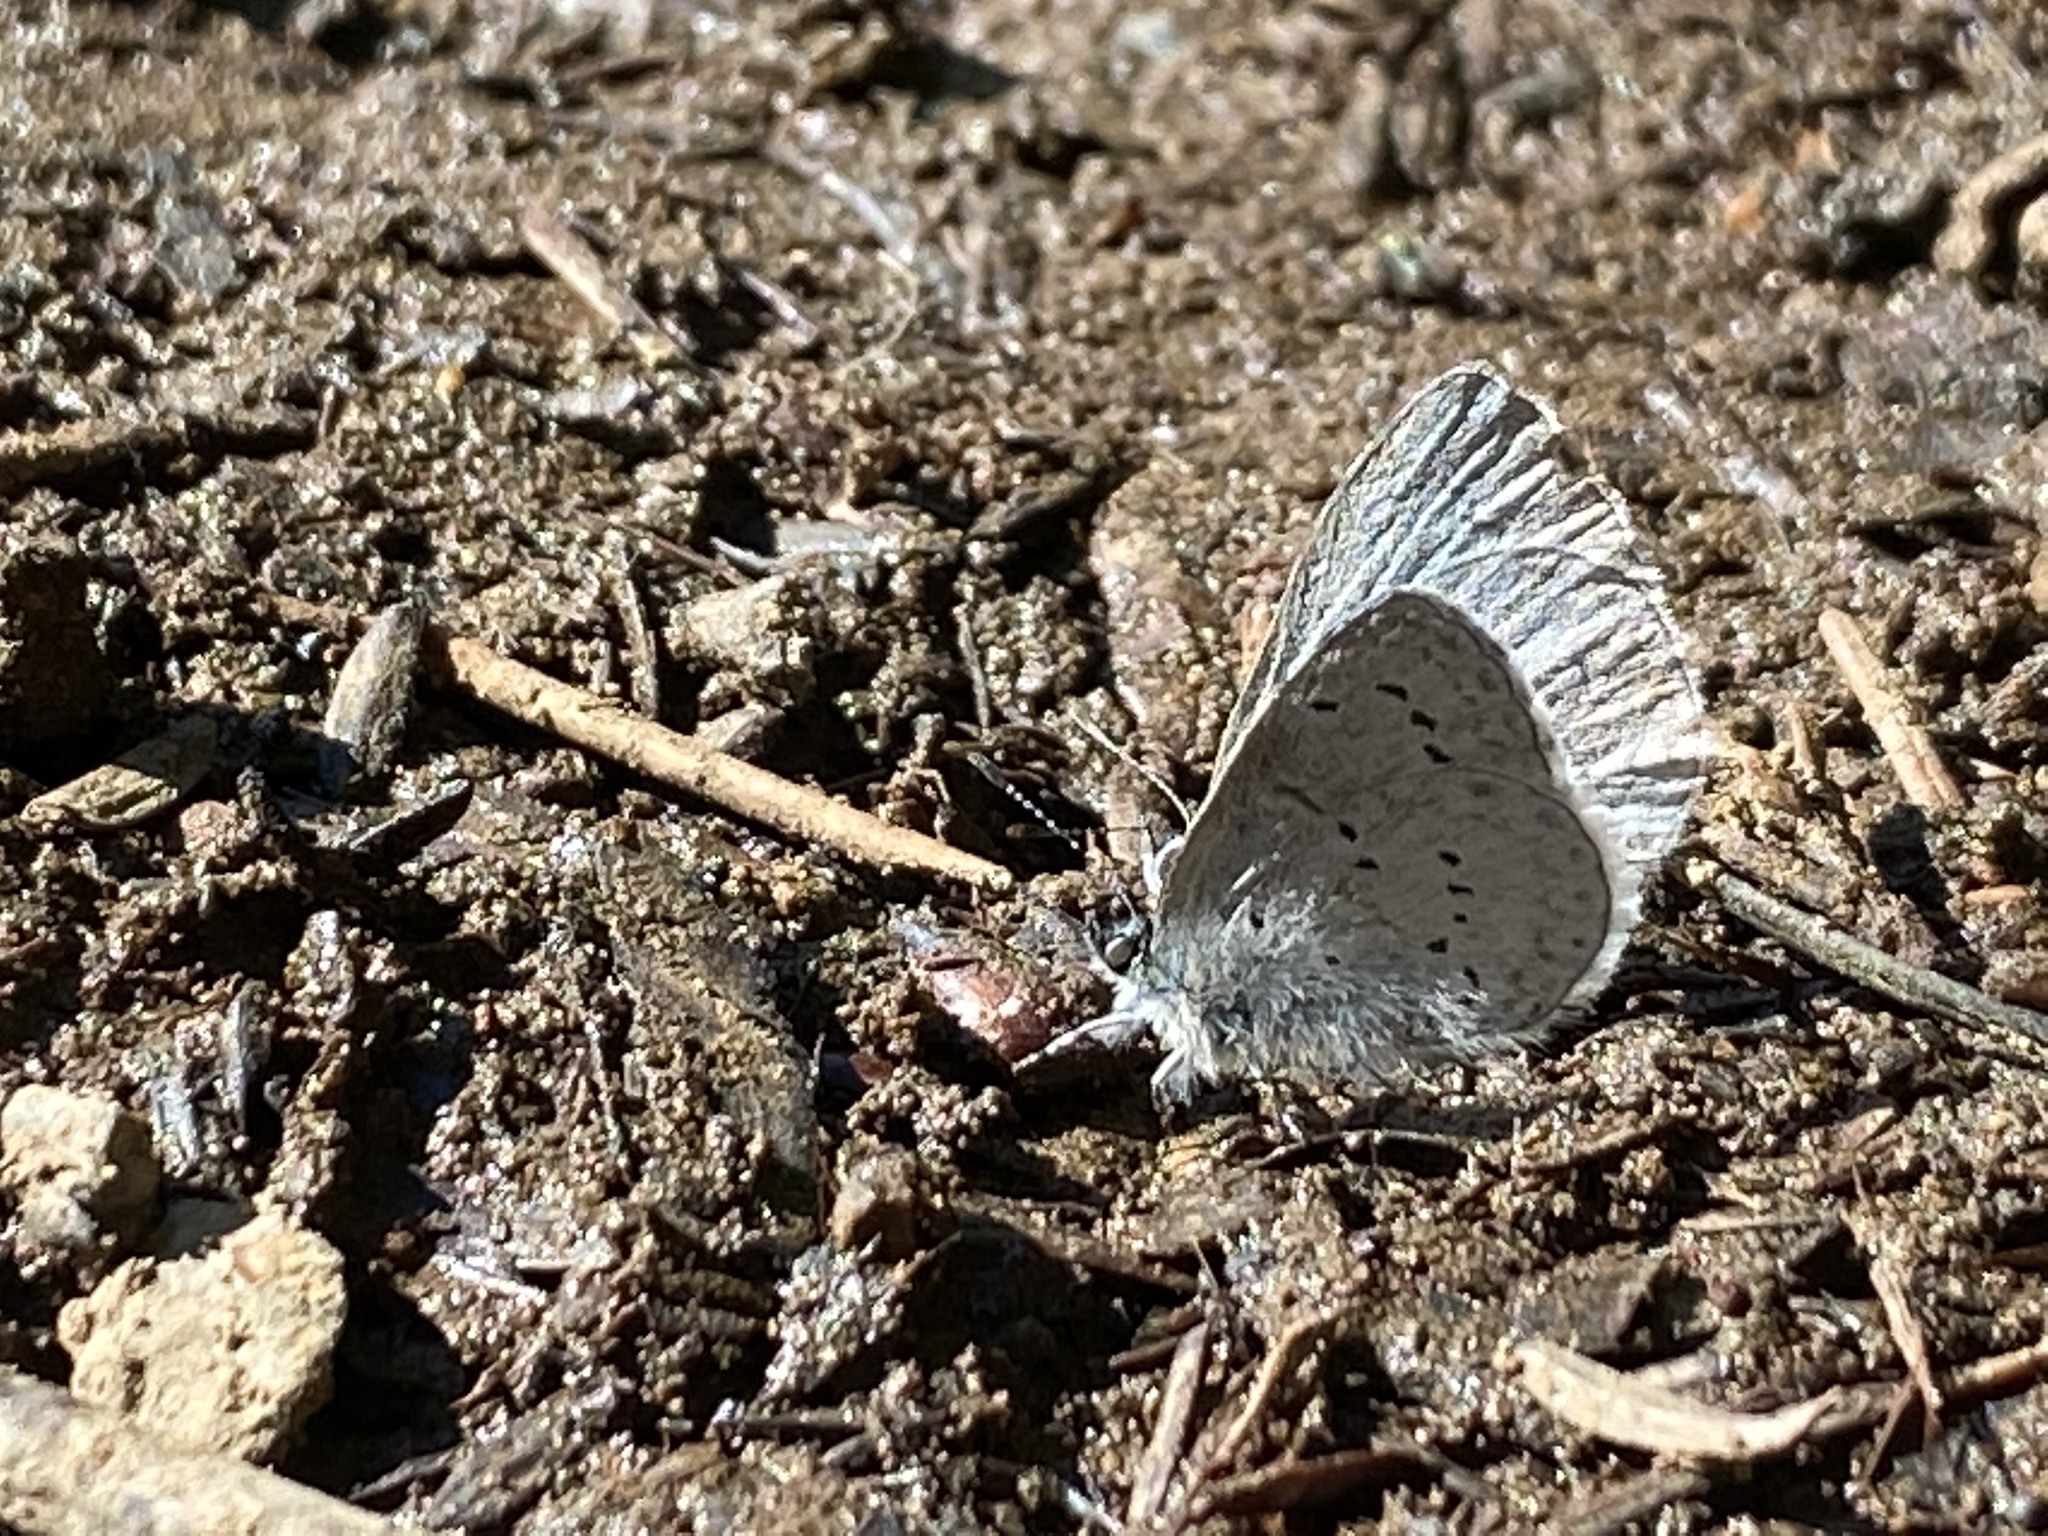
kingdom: Animalia
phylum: Arthropoda
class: Insecta
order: Lepidoptera
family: Lycaenidae
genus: Celastrina
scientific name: Celastrina ladon
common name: Spring azure
